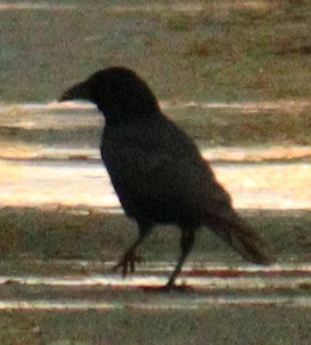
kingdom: Animalia
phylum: Chordata
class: Aves
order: Passeriformes
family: Corvidae
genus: Corvus
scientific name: Corvus corone
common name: Carrion crow
